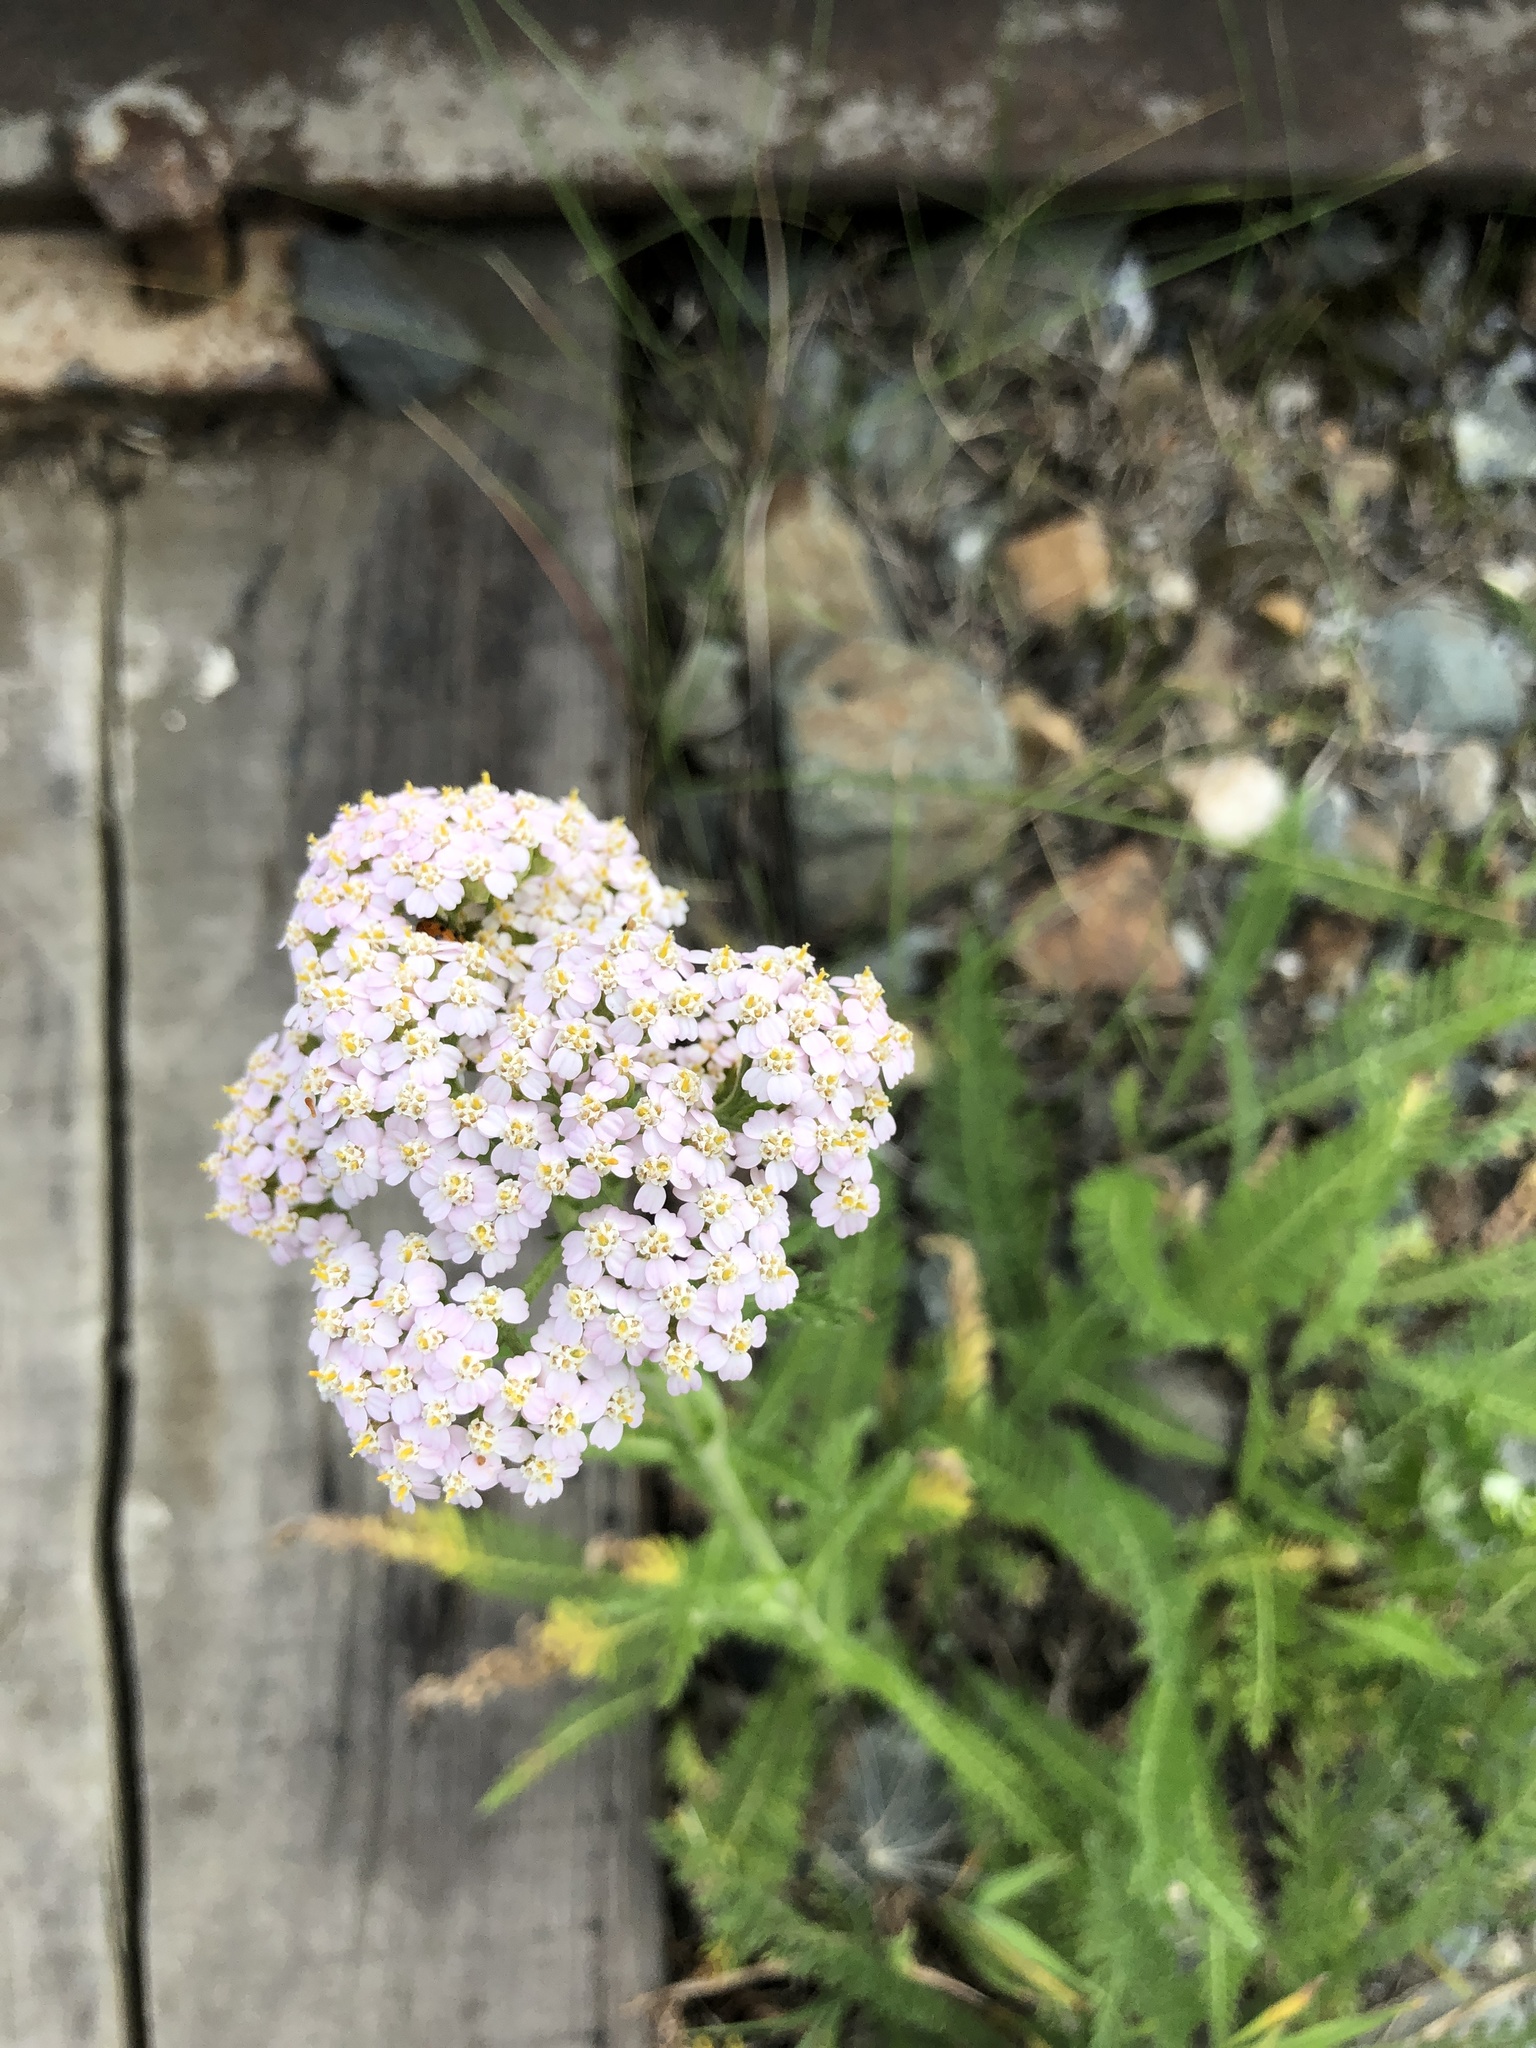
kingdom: Plantae
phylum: Tracheophyta
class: Magnoliopsida
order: Asterales
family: Asteraceae
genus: Achillea
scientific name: Achillea millefolium
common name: Yarrow
